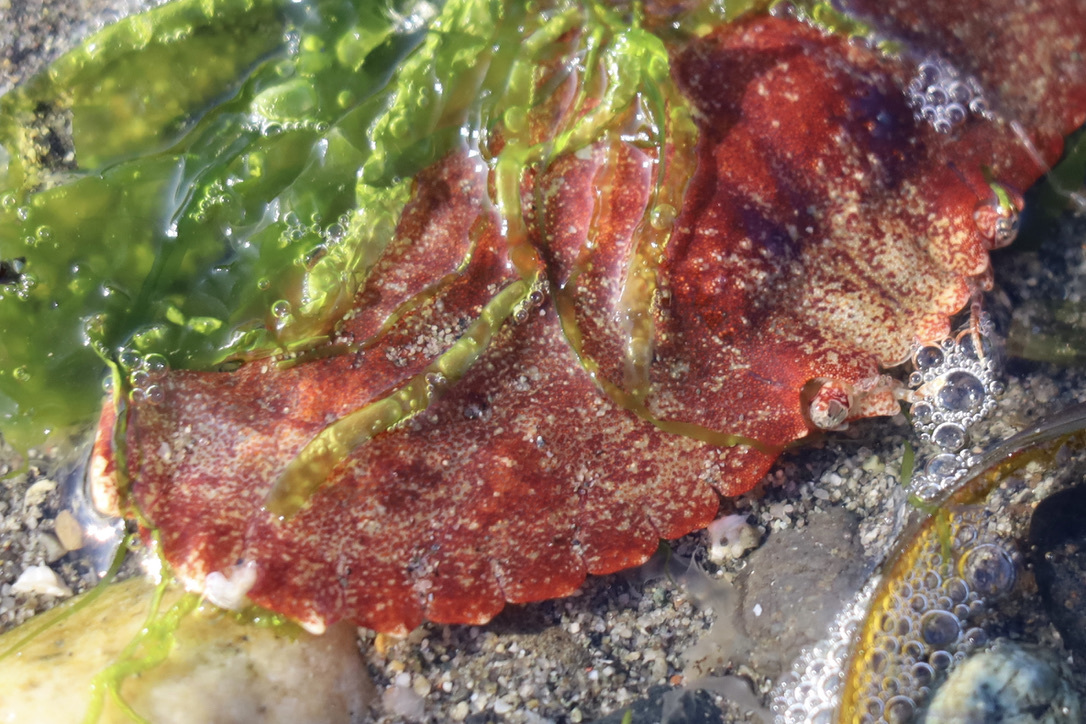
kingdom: Animalia
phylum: Arthropoda
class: Malacostraca
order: Decapoda
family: Cancridae
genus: Cancer
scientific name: Cancer productus
